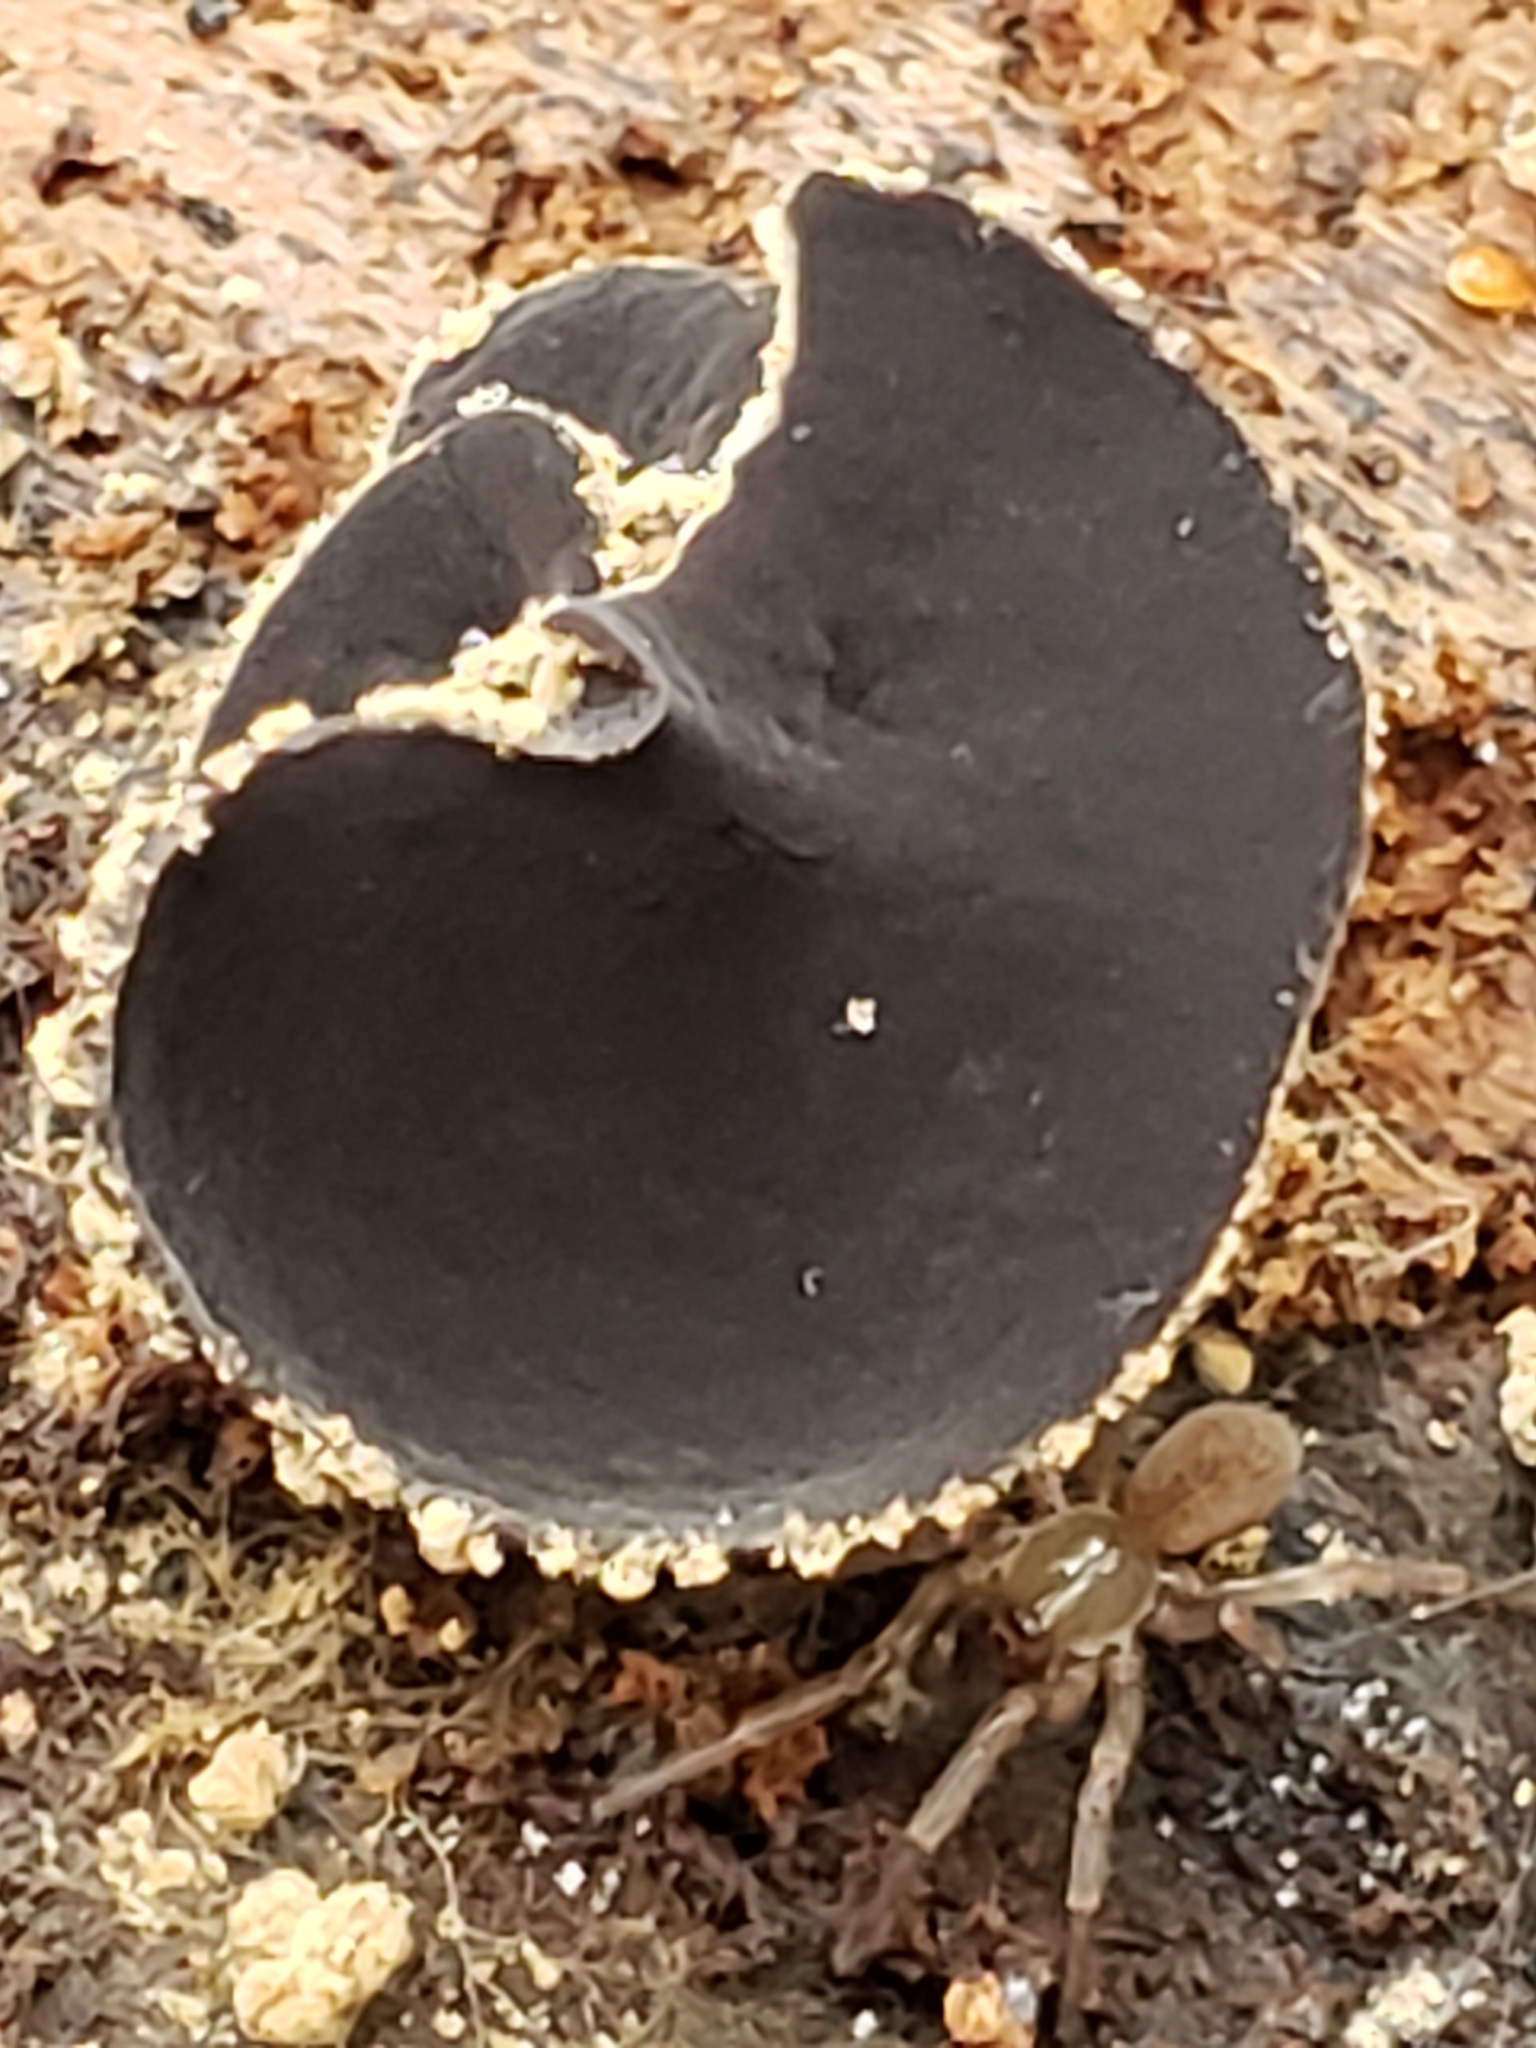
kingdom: Fungi
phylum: Ascomycota
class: Leotiomycetes
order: Helotiales
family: Cordieritidaceae
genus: Diplocarpa
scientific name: Diplocarpa irregularis
